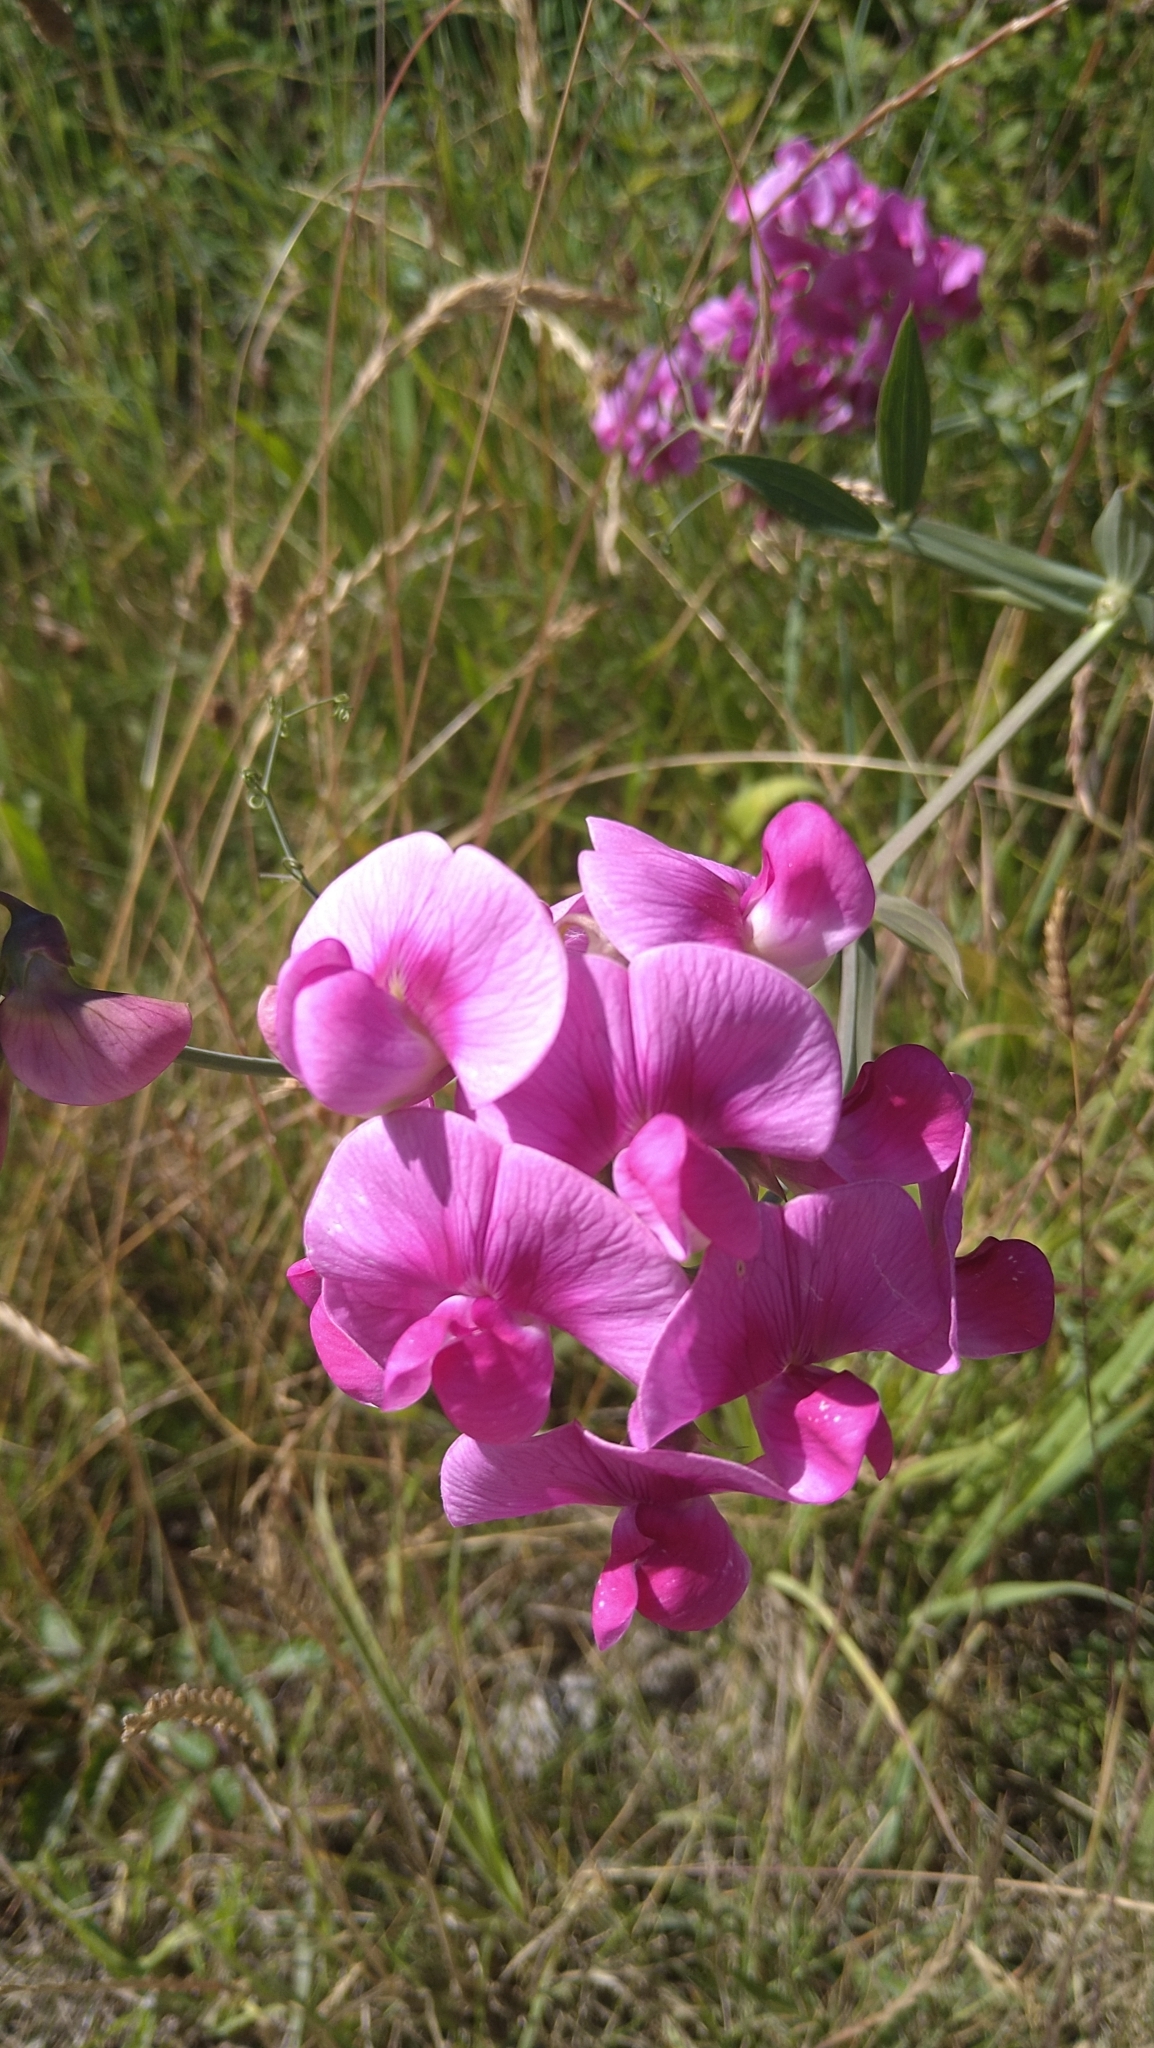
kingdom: Plantae
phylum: Tracheophyta
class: Magnoliopsida
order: Fabales
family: Fabaceae
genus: Lathyrus
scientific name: Lathyrus latifolius
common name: Perennial pea
